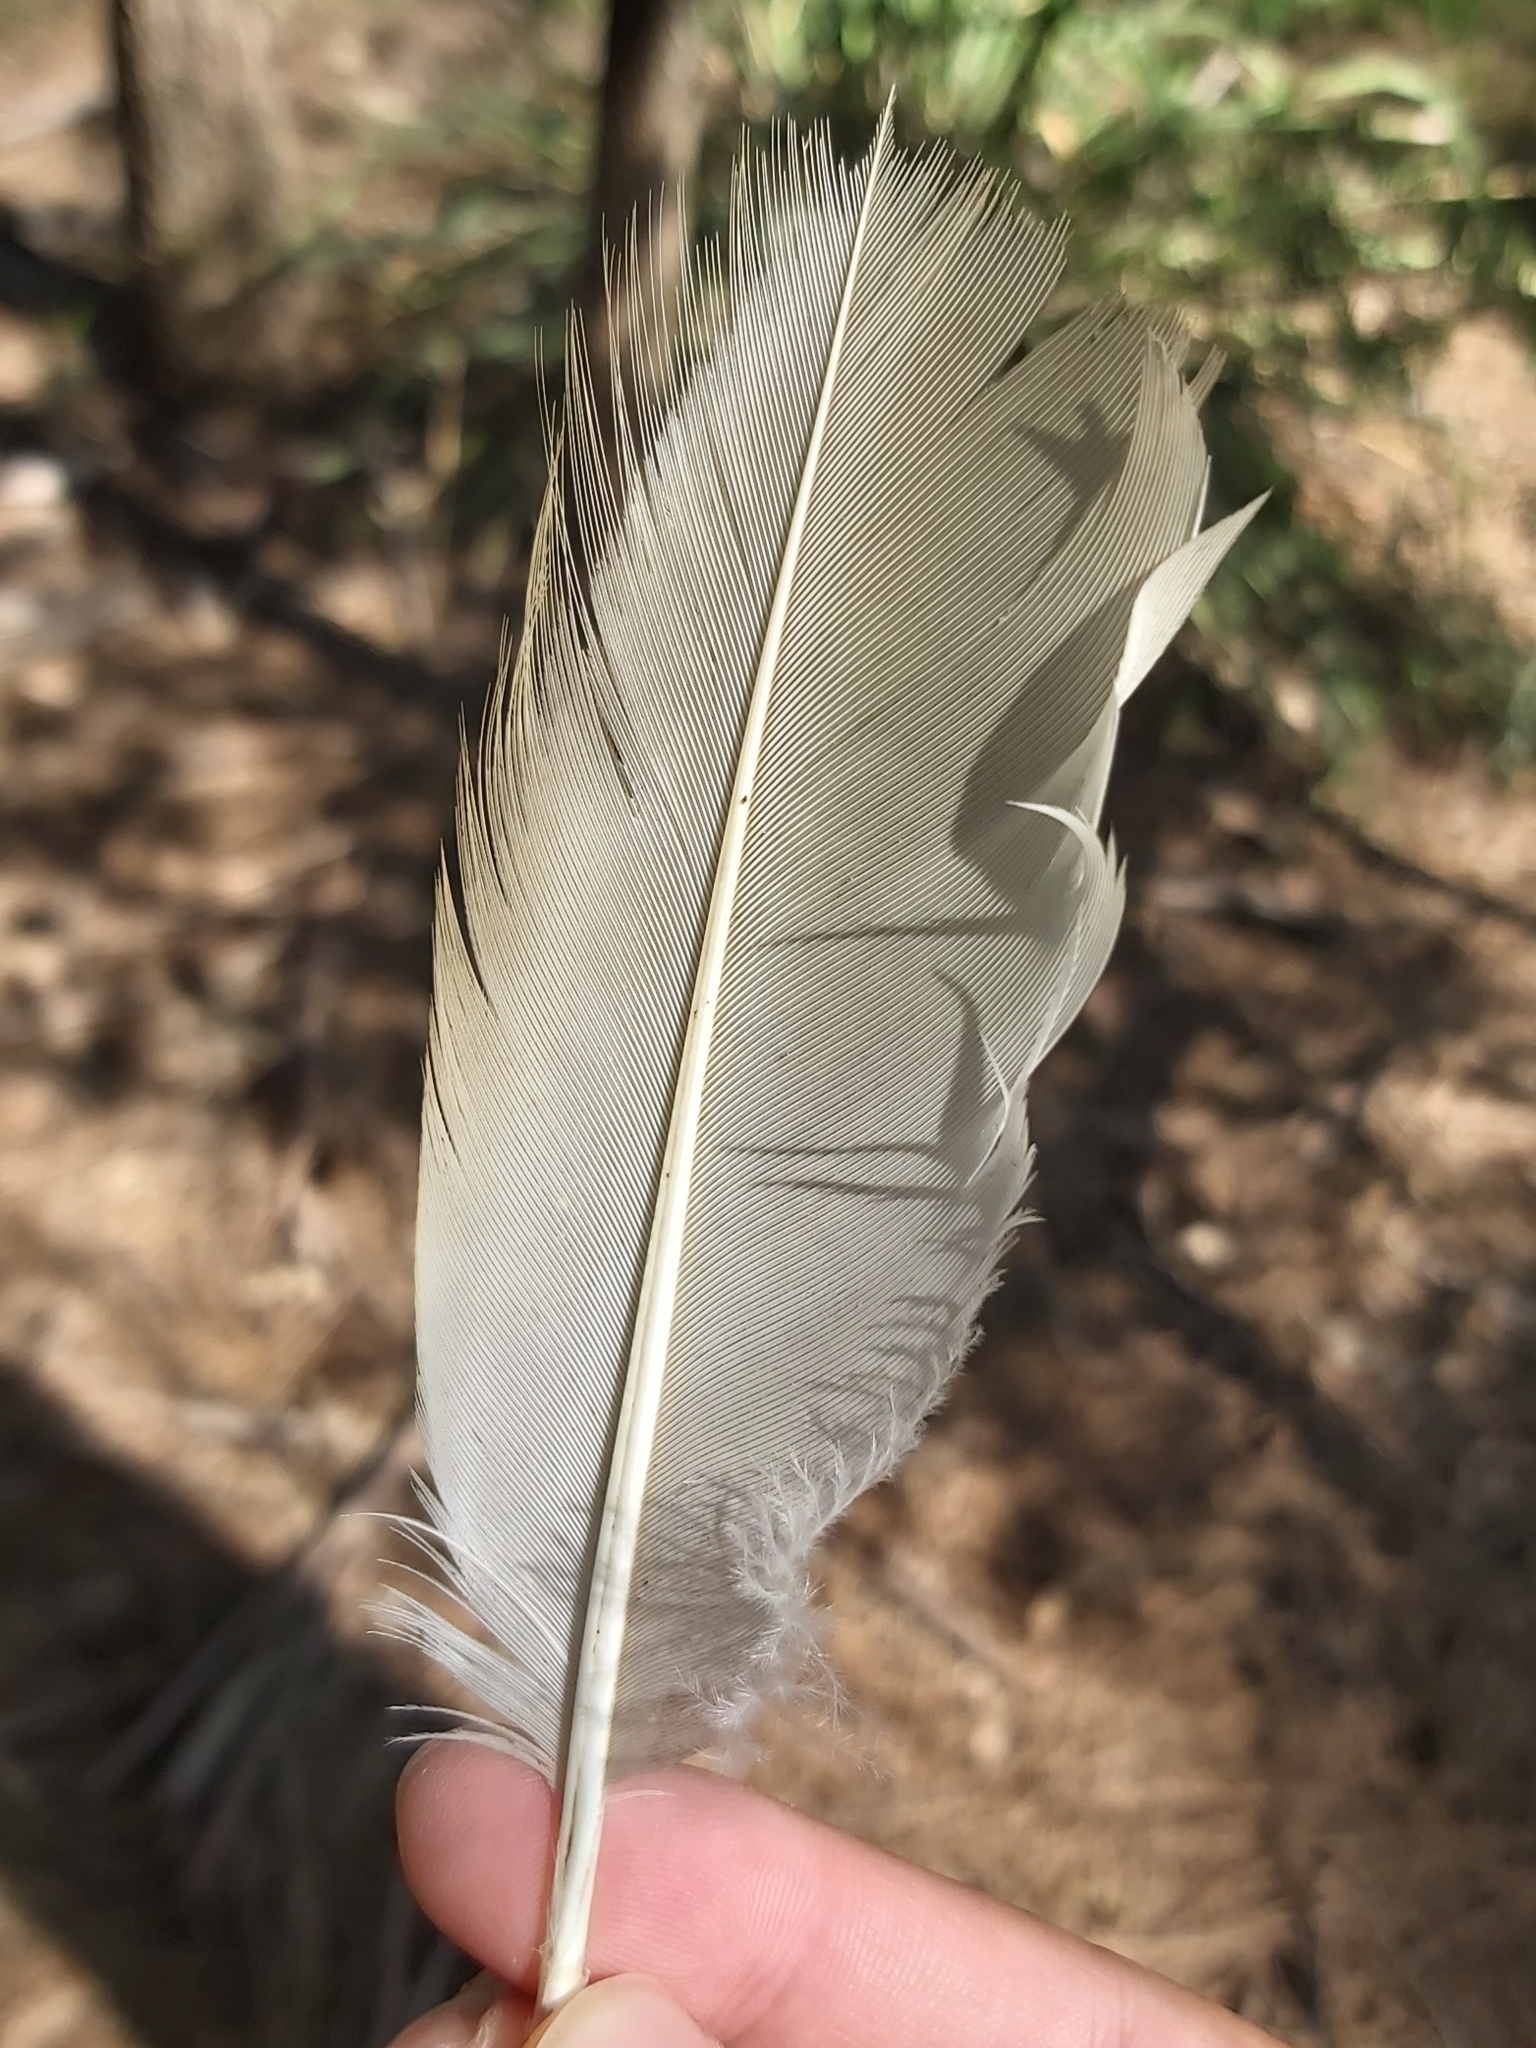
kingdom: Animalia
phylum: Chordata
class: Aves
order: Pelecaniformes
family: Threskiornithidae
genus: Threskiornis
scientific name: Threskiornis molucca
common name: Australian white ibis
